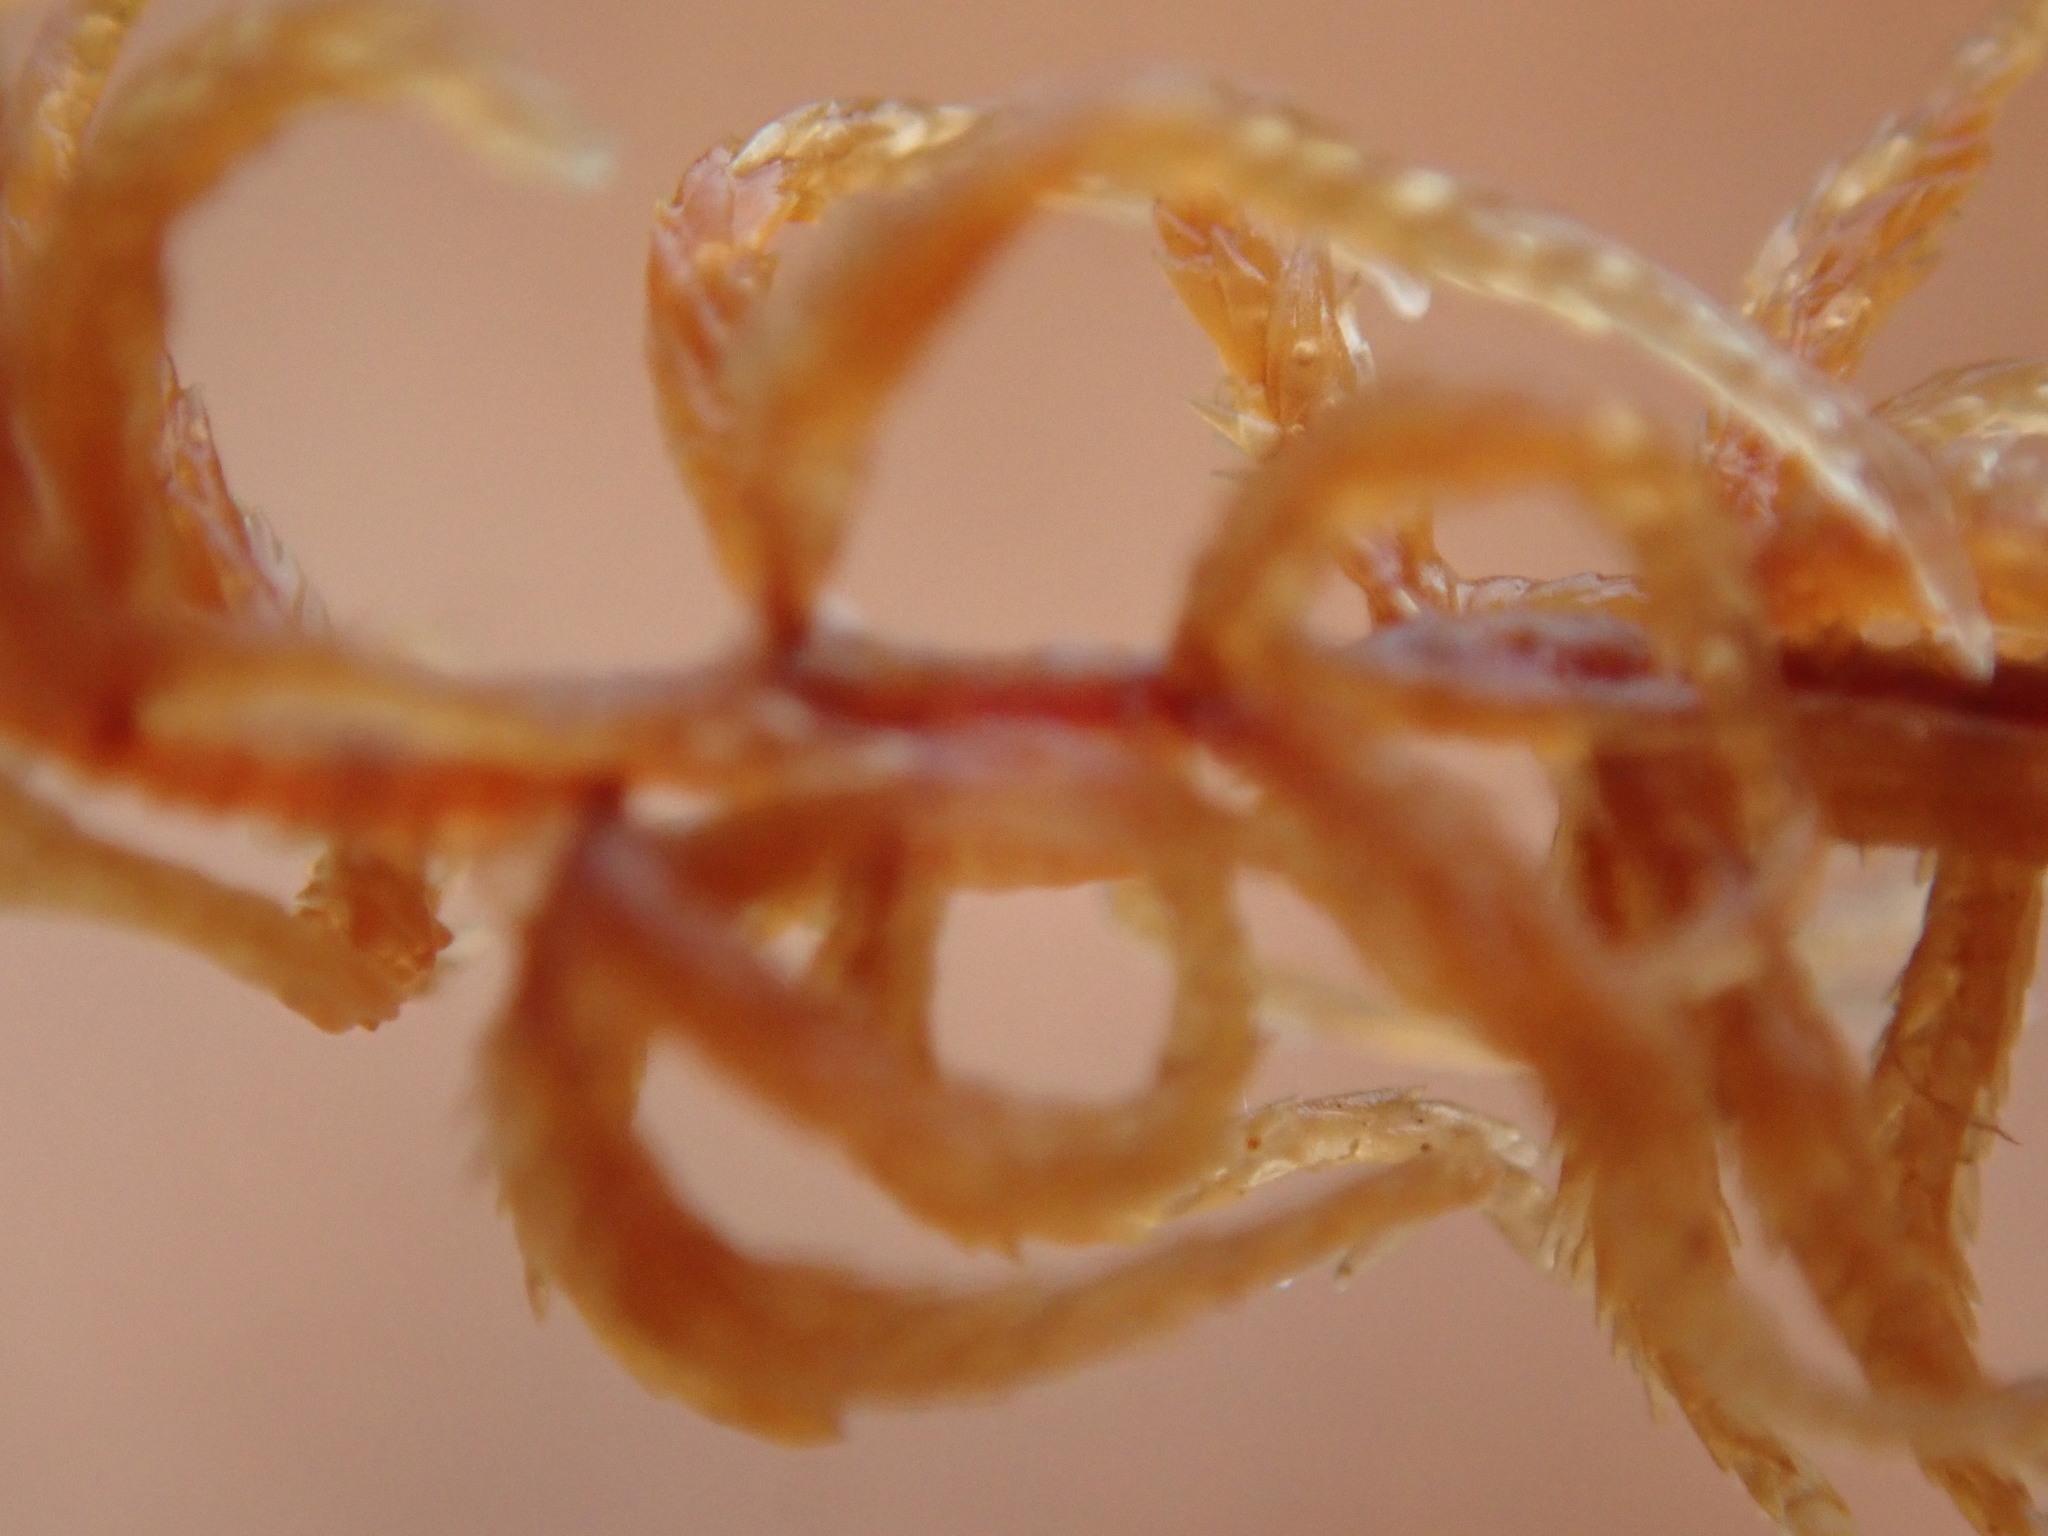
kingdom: Plantae
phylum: Bryophyta
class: Sphagnopsida
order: Sphagnales
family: Sphagnaceae
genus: Sphagnum
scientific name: Sphagnum fuscum
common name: Brown peat moss
